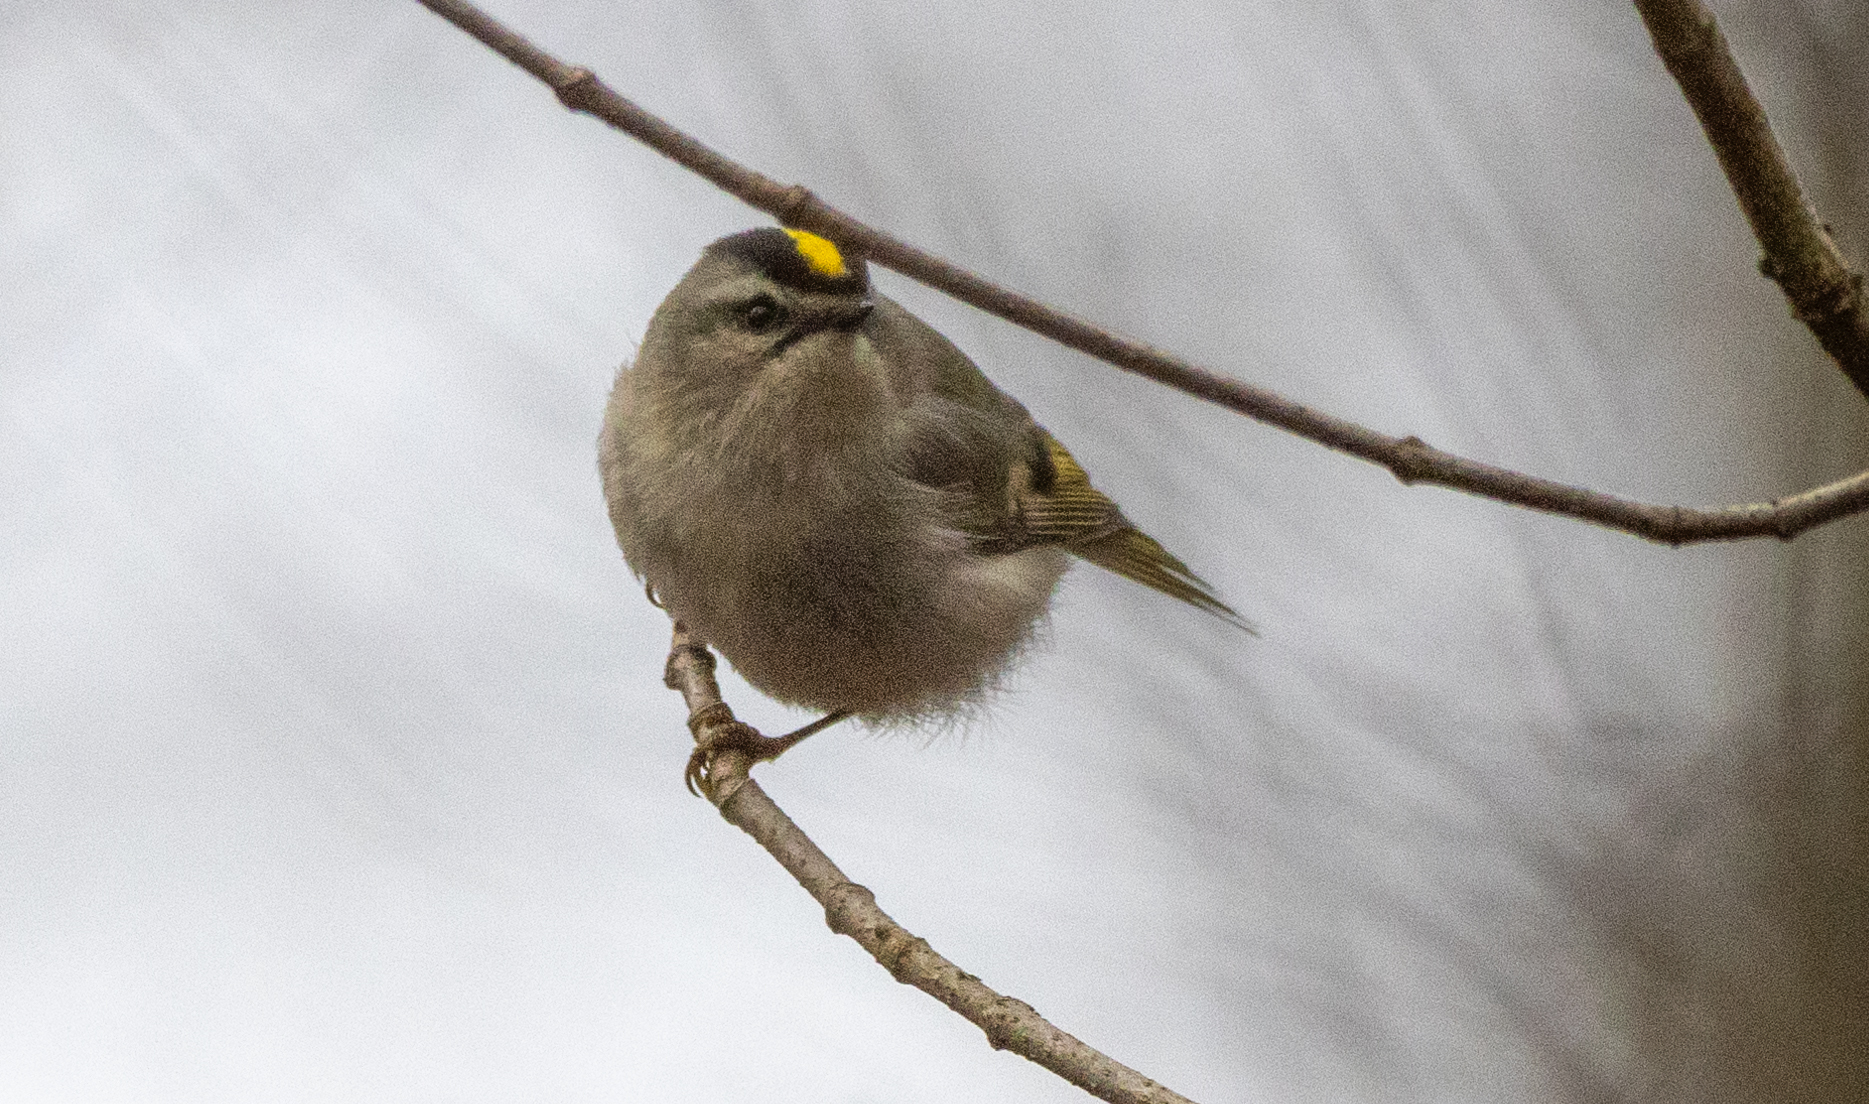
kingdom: Animalia
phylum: Chordata
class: Aves
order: Passeriformes
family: Regulidae
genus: Regulus
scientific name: Regulus satrapa
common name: Golden-crowned kinglet
